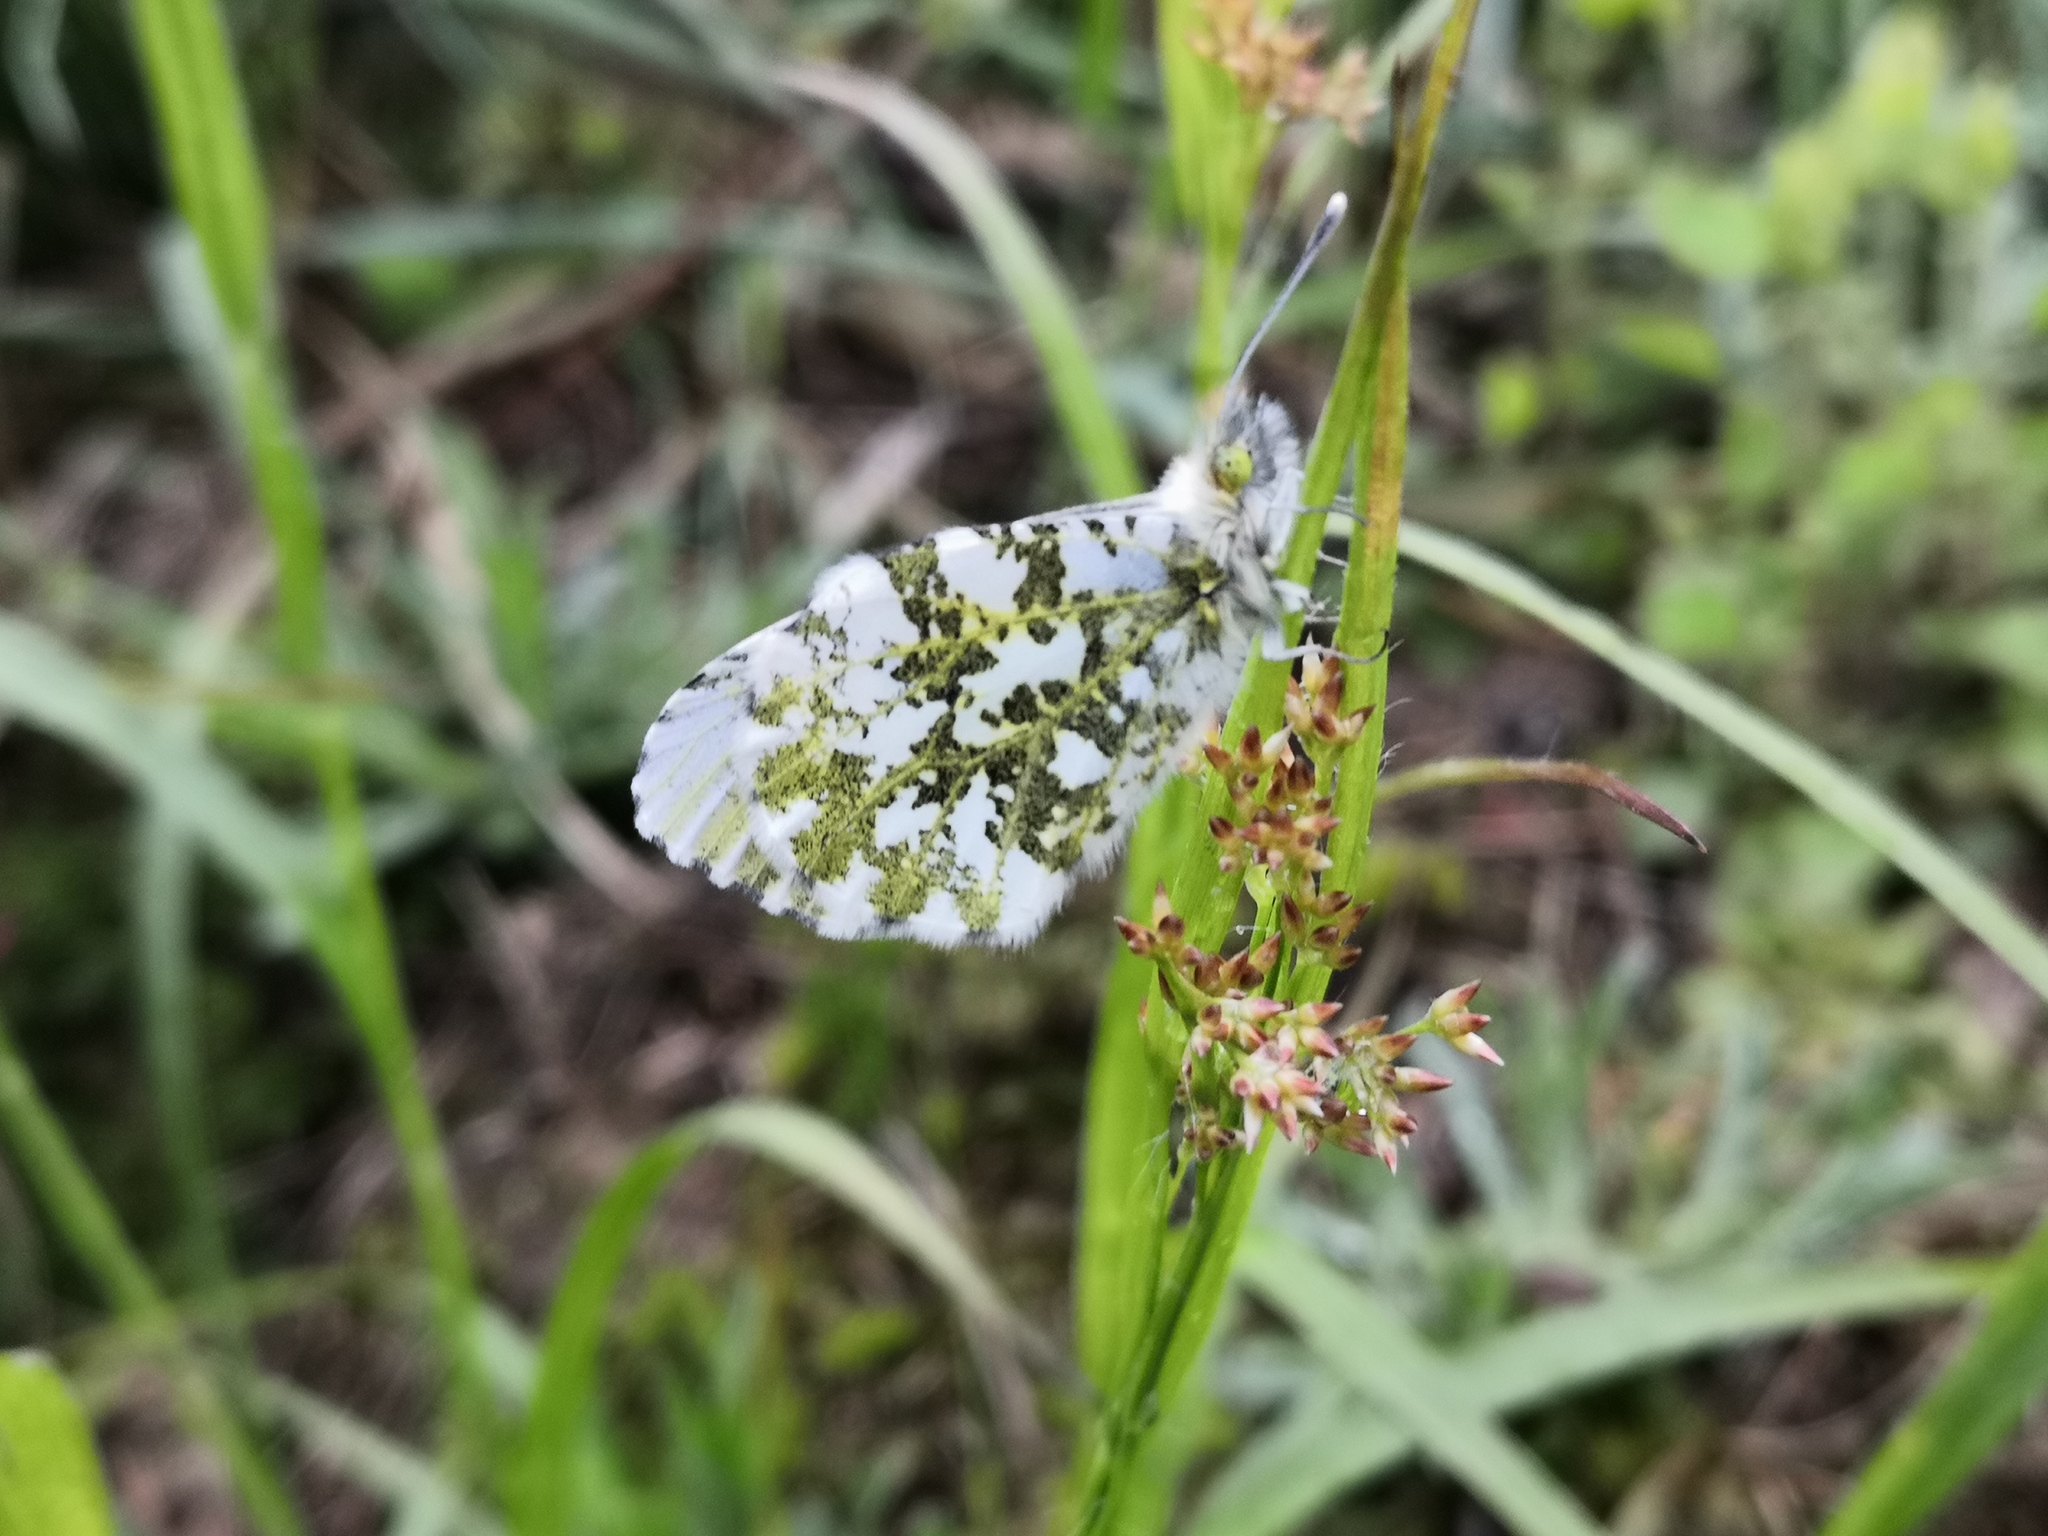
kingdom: Animalia
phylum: Arthropoda
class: Insecta
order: Lepidoptera
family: Pieridae
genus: Anthocharis
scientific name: Anthocharis cardamines
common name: Orange-tip
